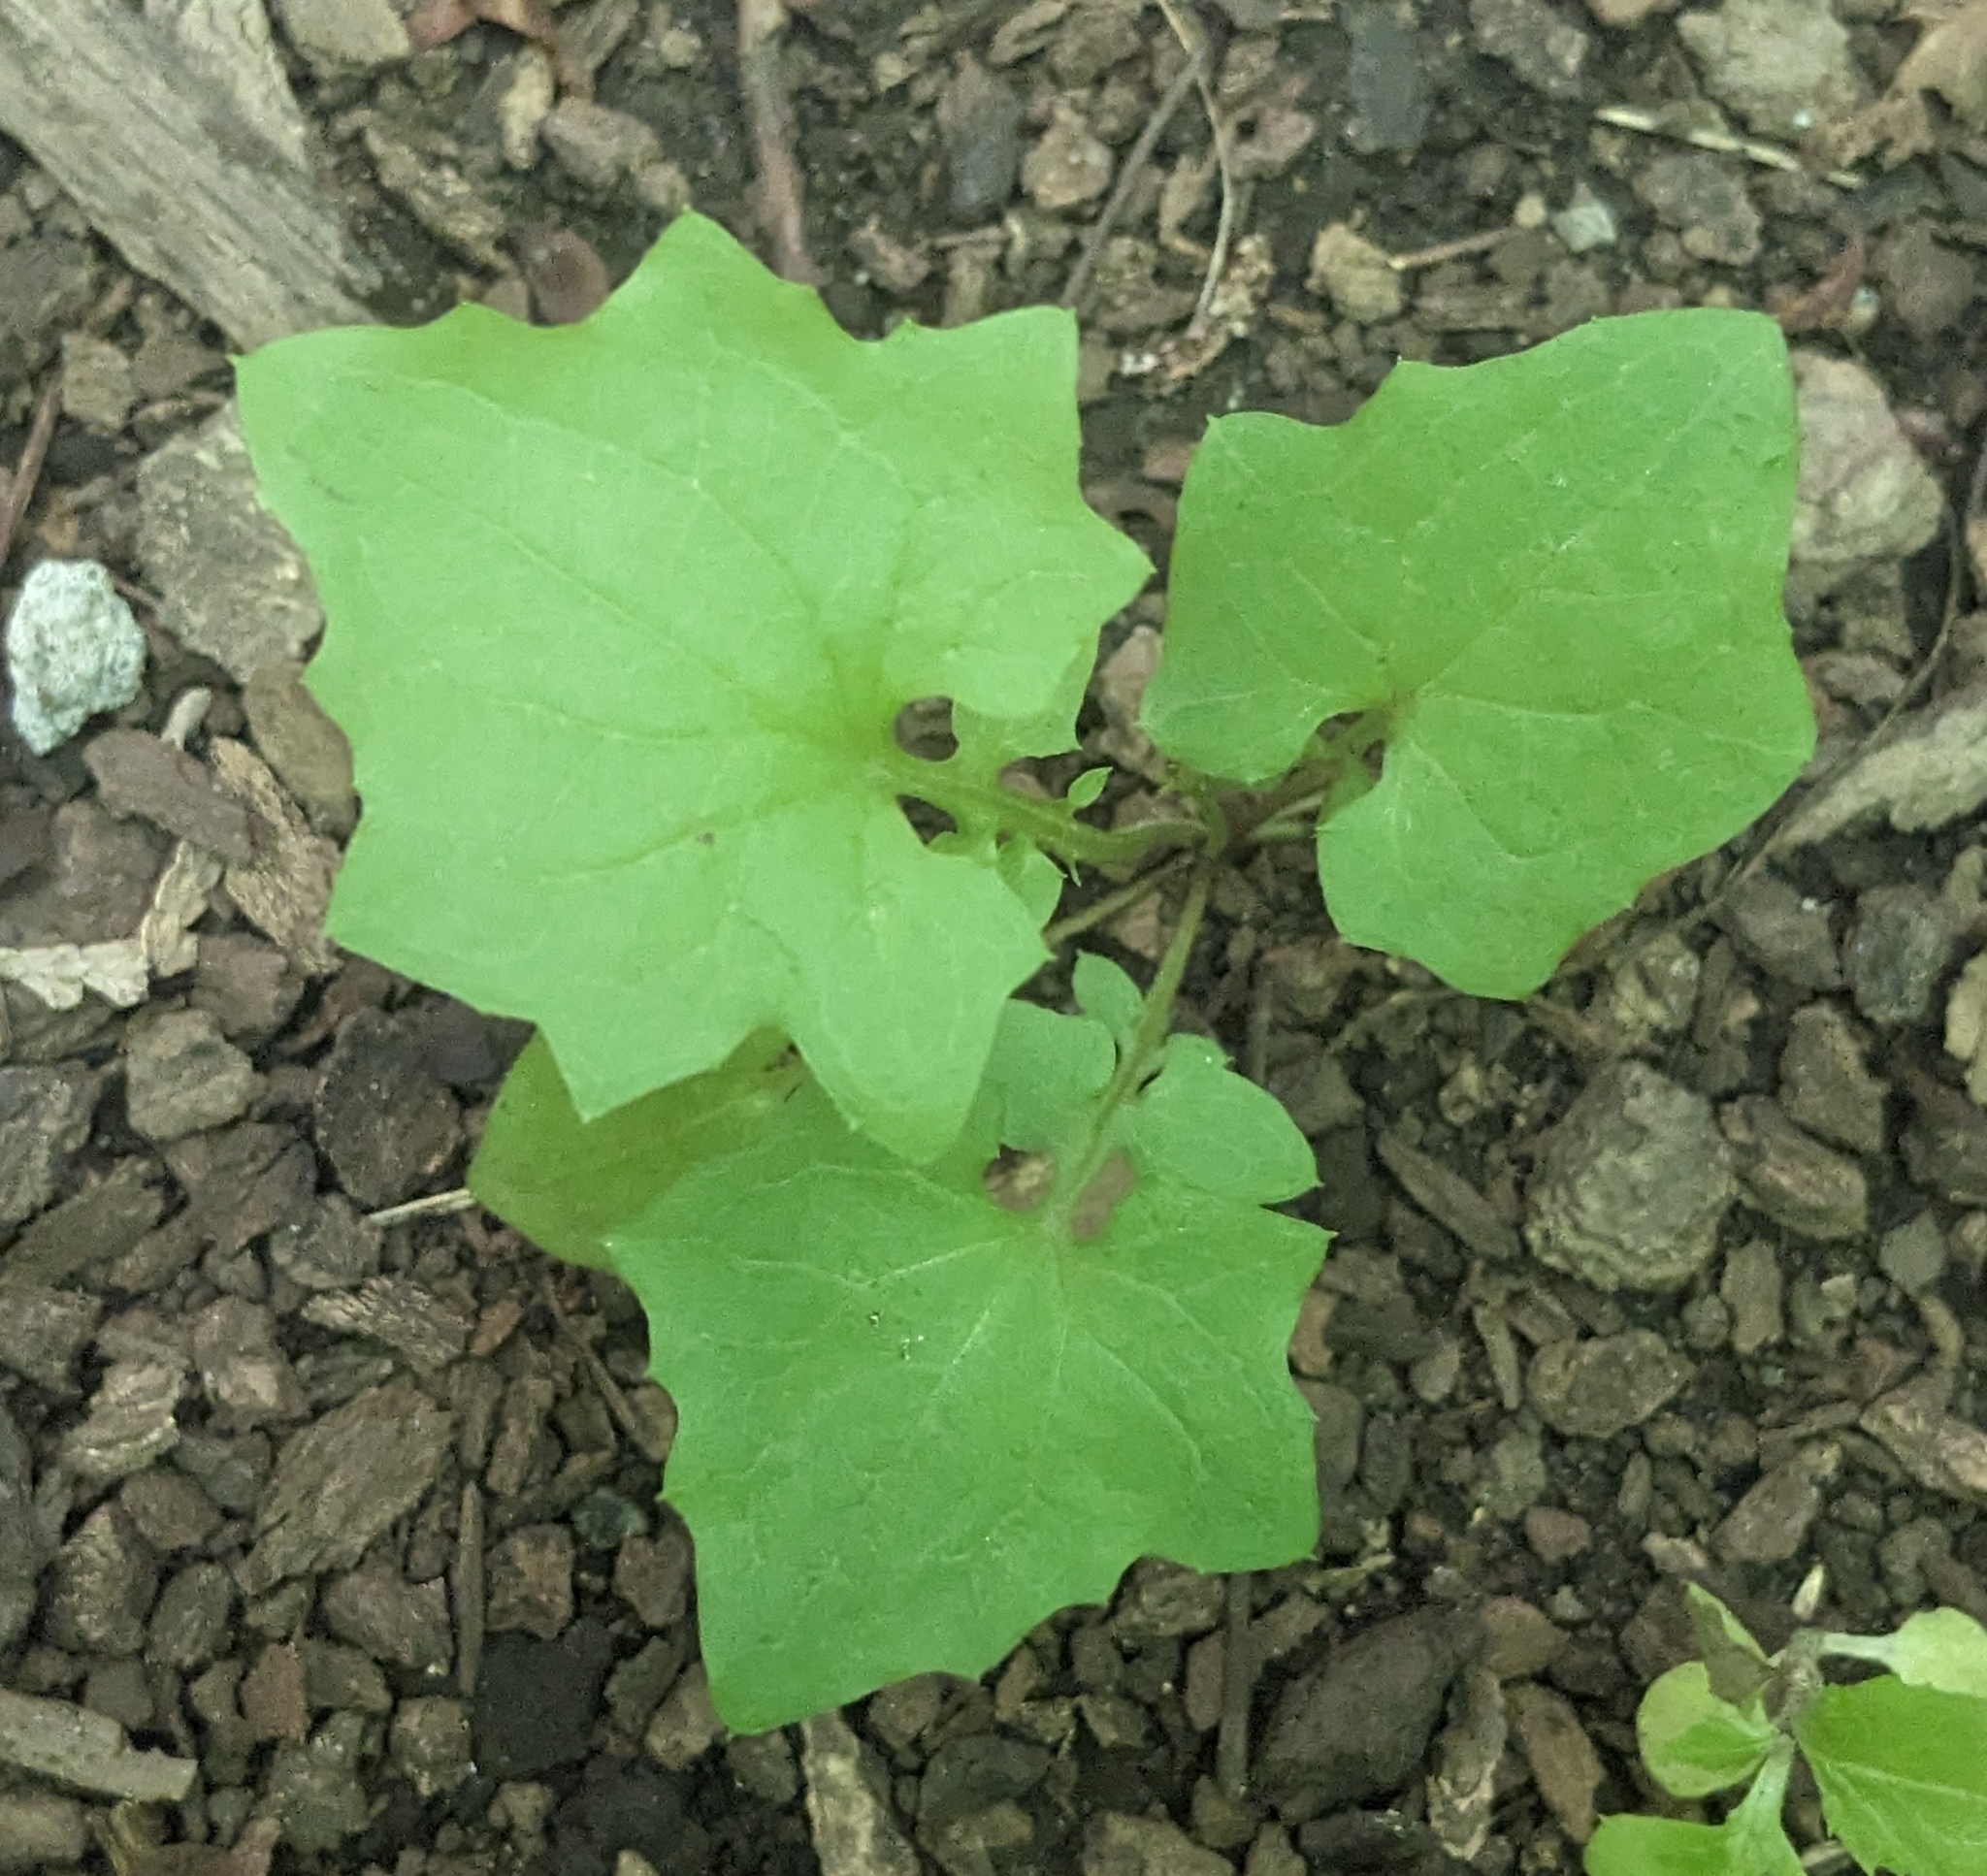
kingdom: Plantae
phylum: Tracheophyta
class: Magnoliopsida
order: Asterales
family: Asteraceae
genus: Mycelis
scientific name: Mycelis muralis
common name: Wall lettuce
